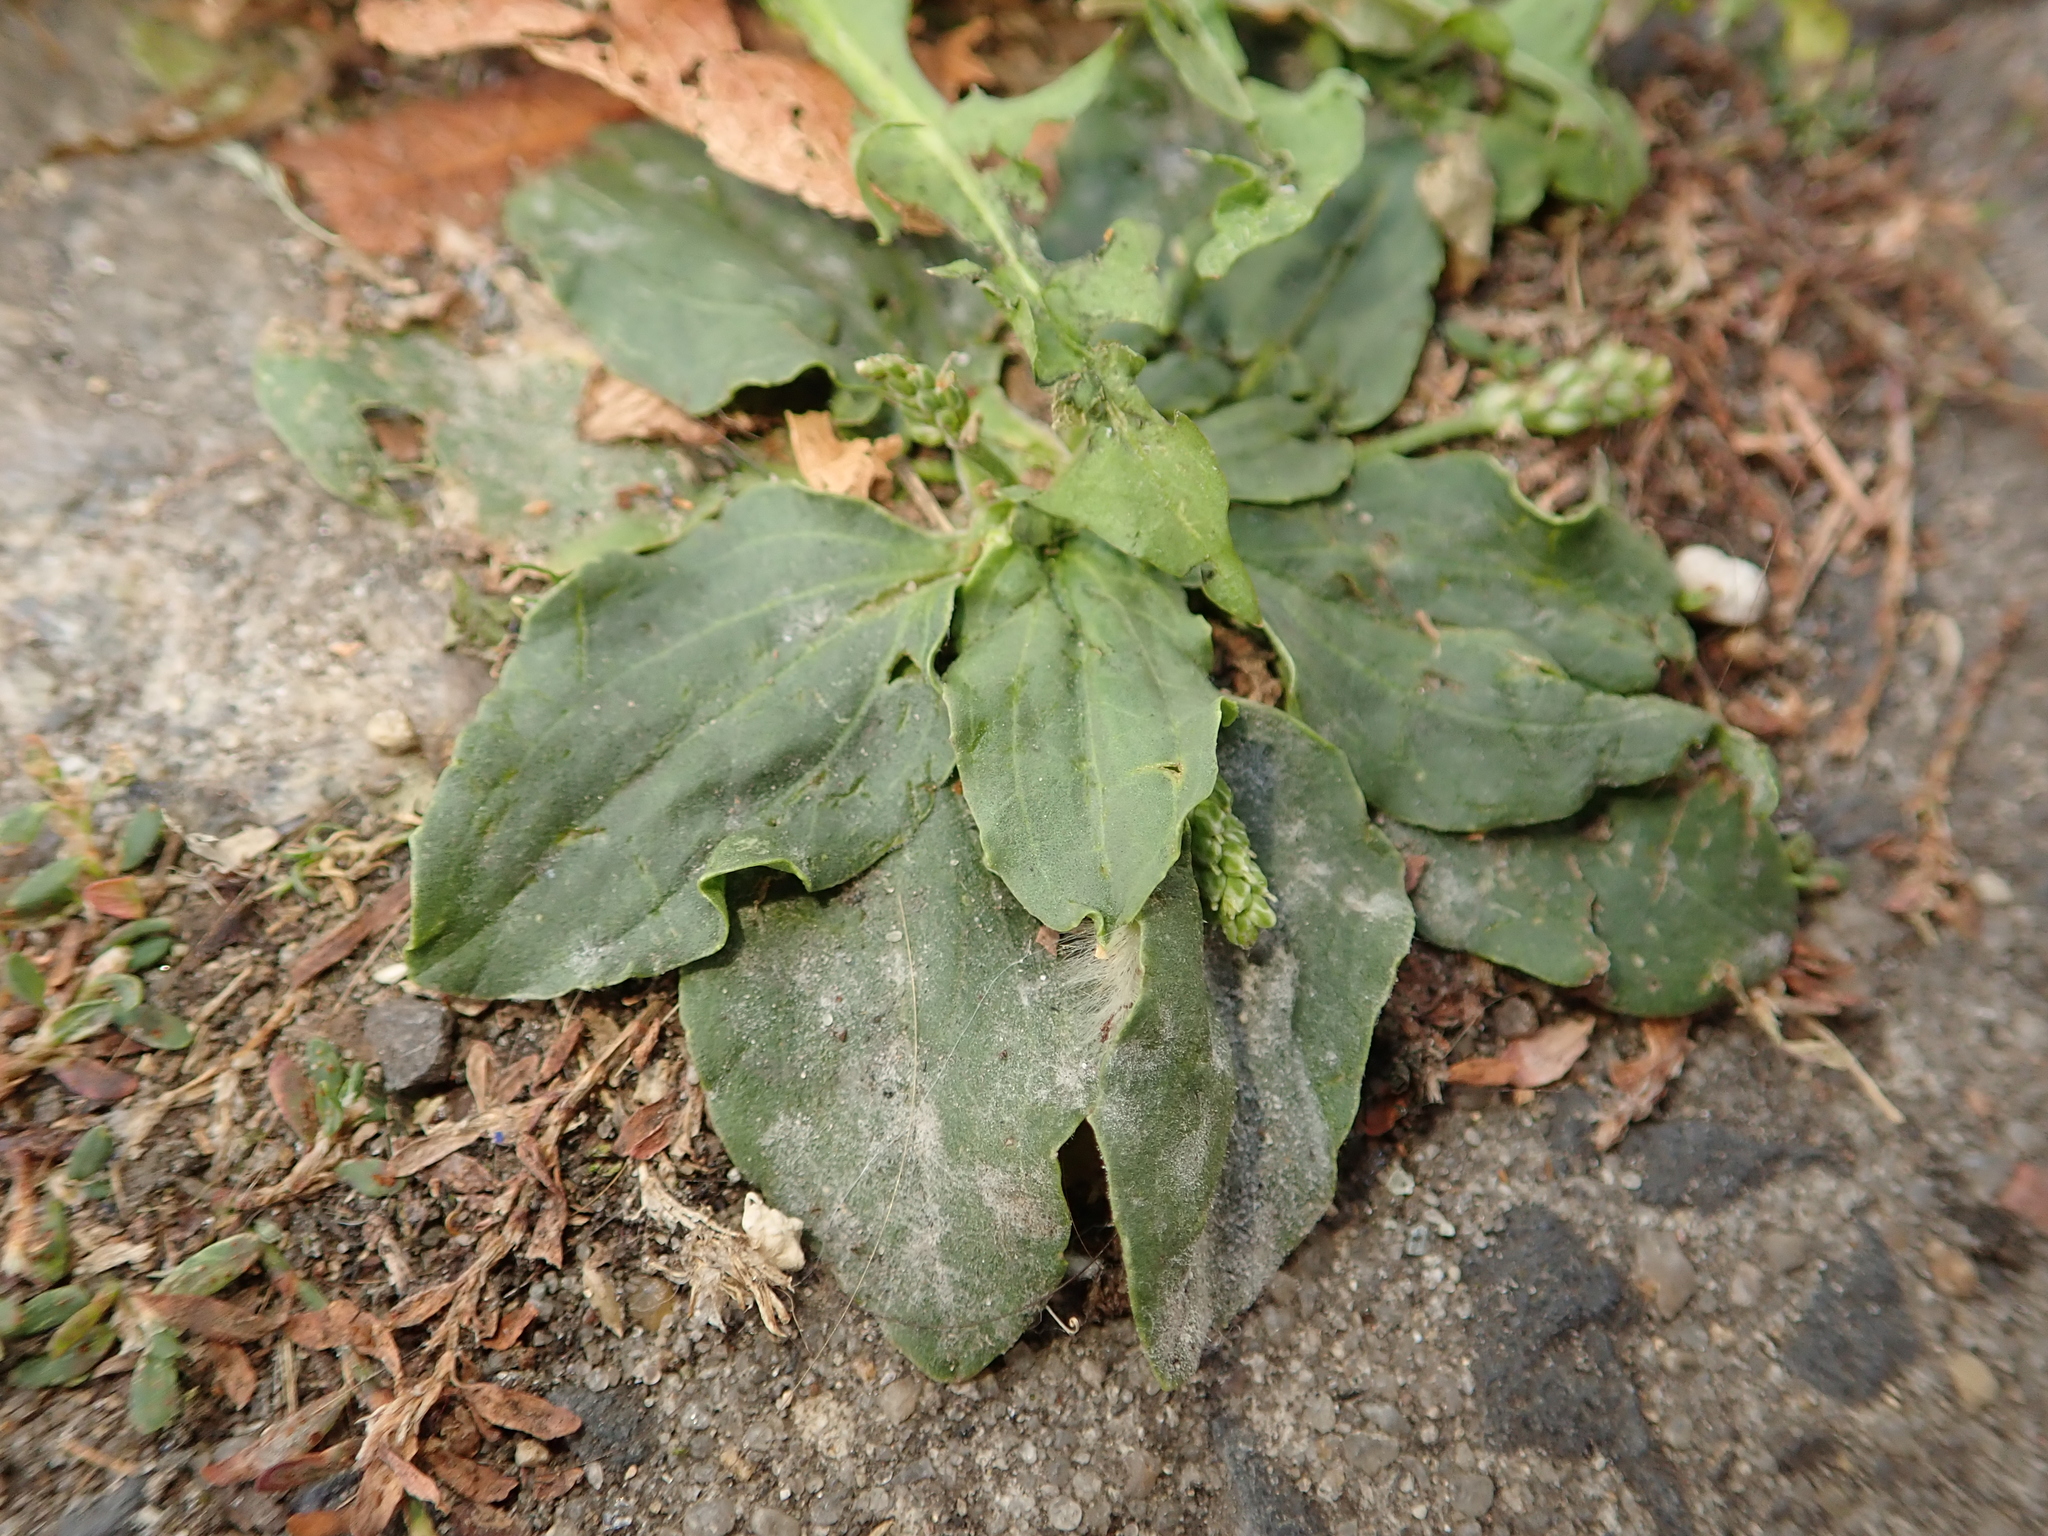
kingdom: Plantae
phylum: Tracheophyta
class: Magnoliopsida
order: Lamiales
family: Plantaginaceae
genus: Plantago
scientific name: Plantago major
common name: Common plantain
